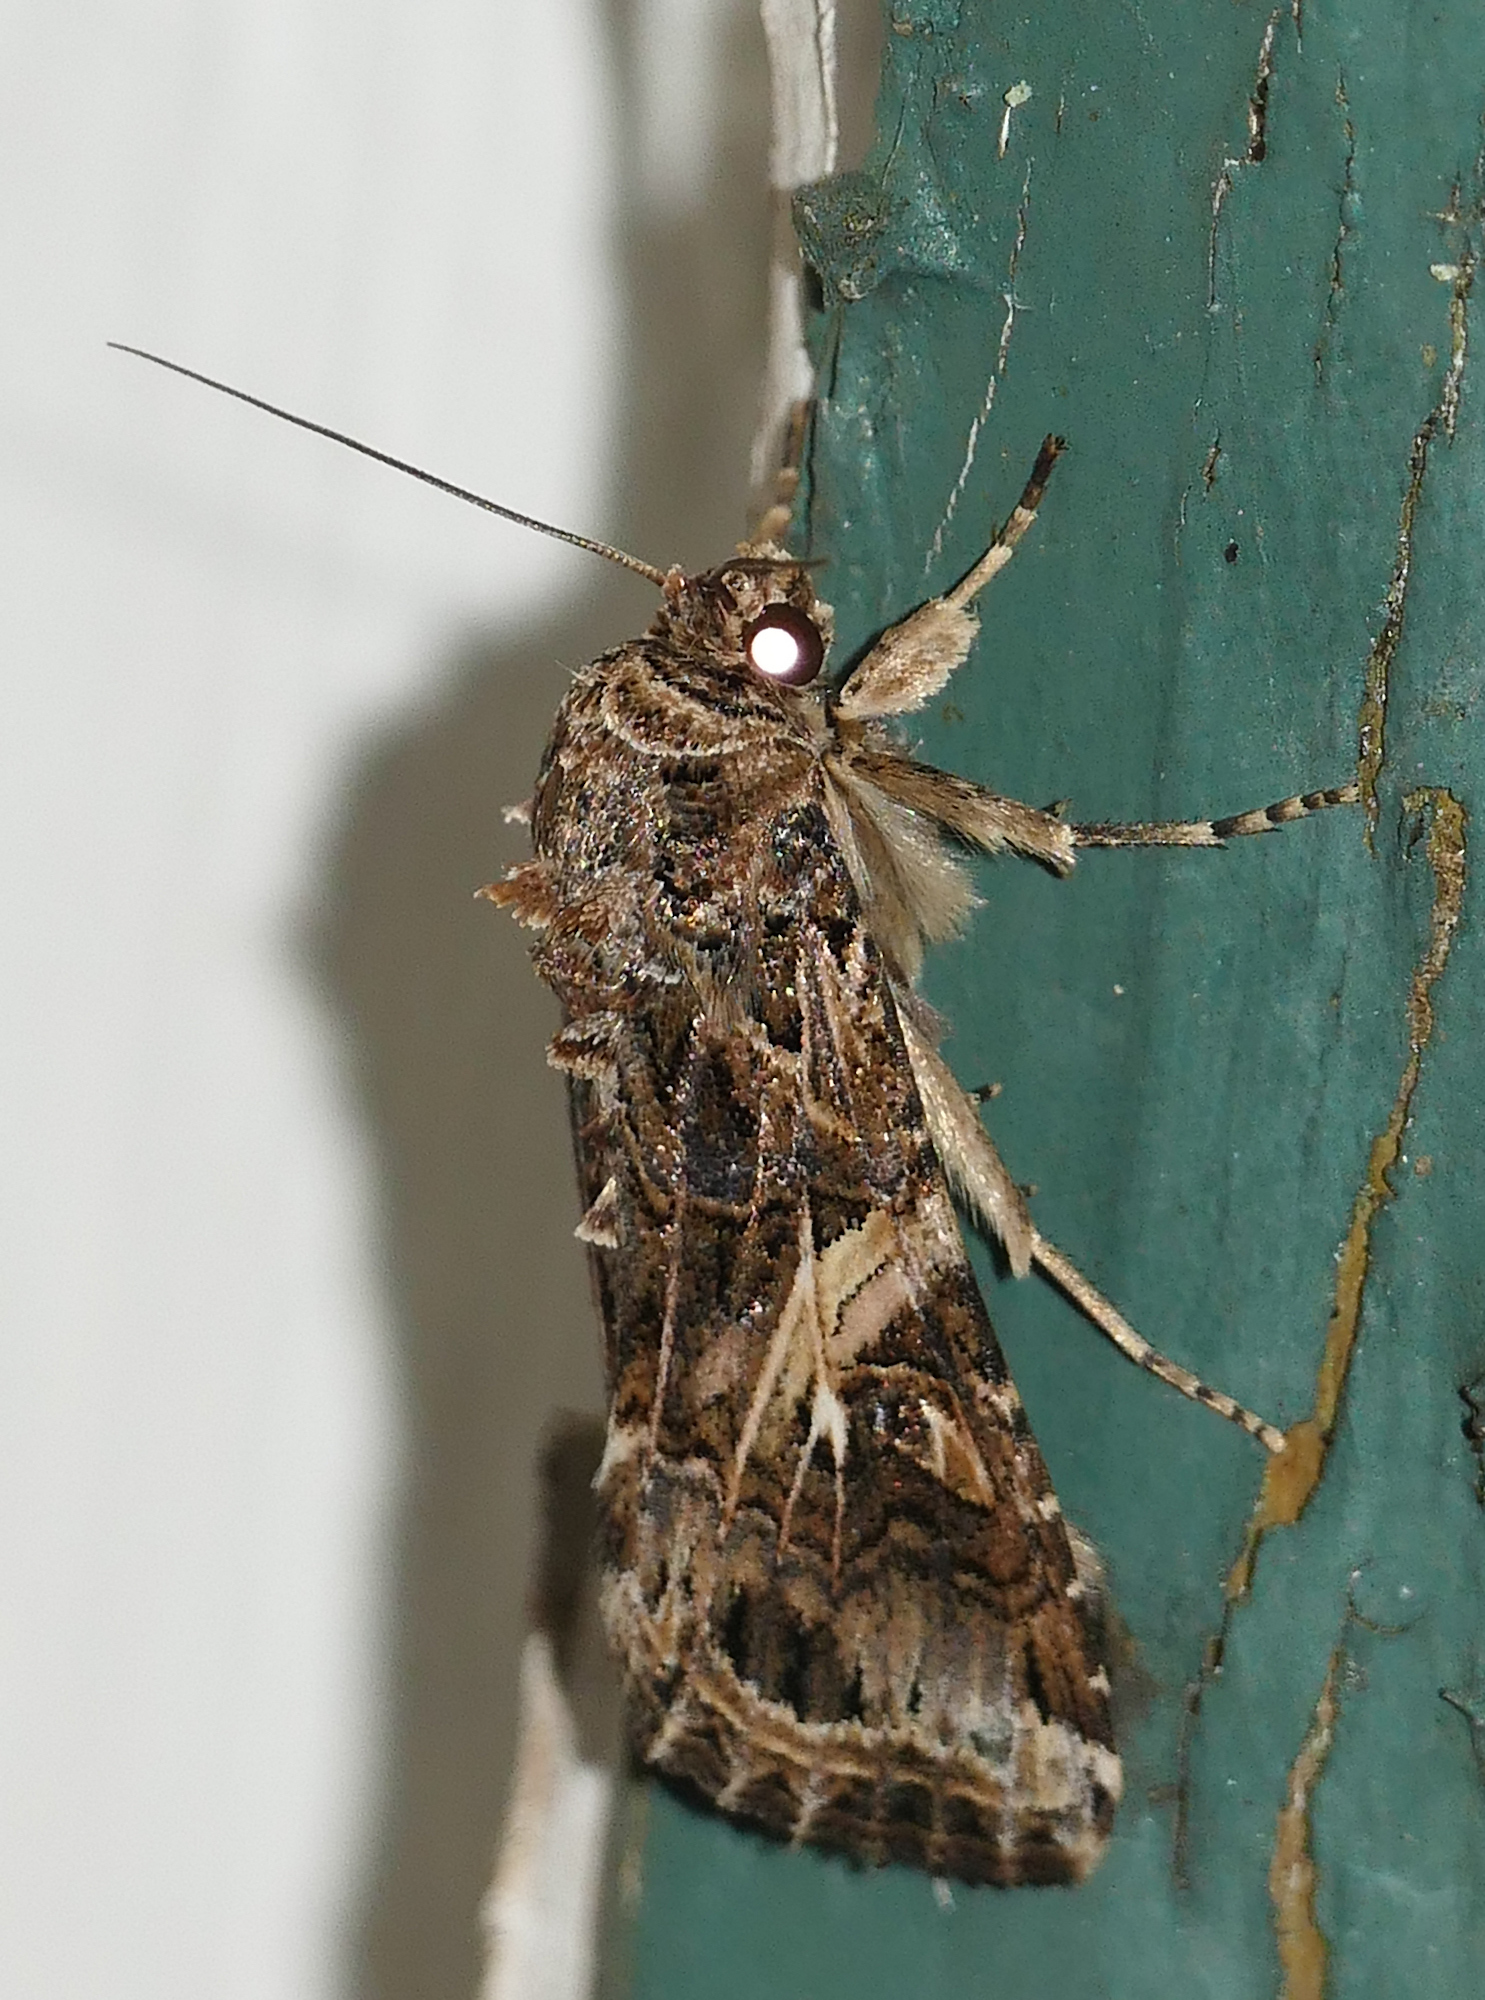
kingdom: Animalia
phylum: Arthropoda
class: Insecta
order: Lepidoptera
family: Noctuidae
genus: Spodoptera
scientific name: Spodoptera ornithogalli
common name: Yellow-striped armyworm
